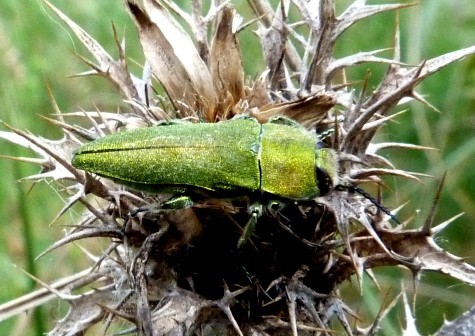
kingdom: Animalia
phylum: Arthropoda
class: Insecta
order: Coleoptera
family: Buprestidae
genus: Anthaxia
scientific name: Anthaxia hungarica
